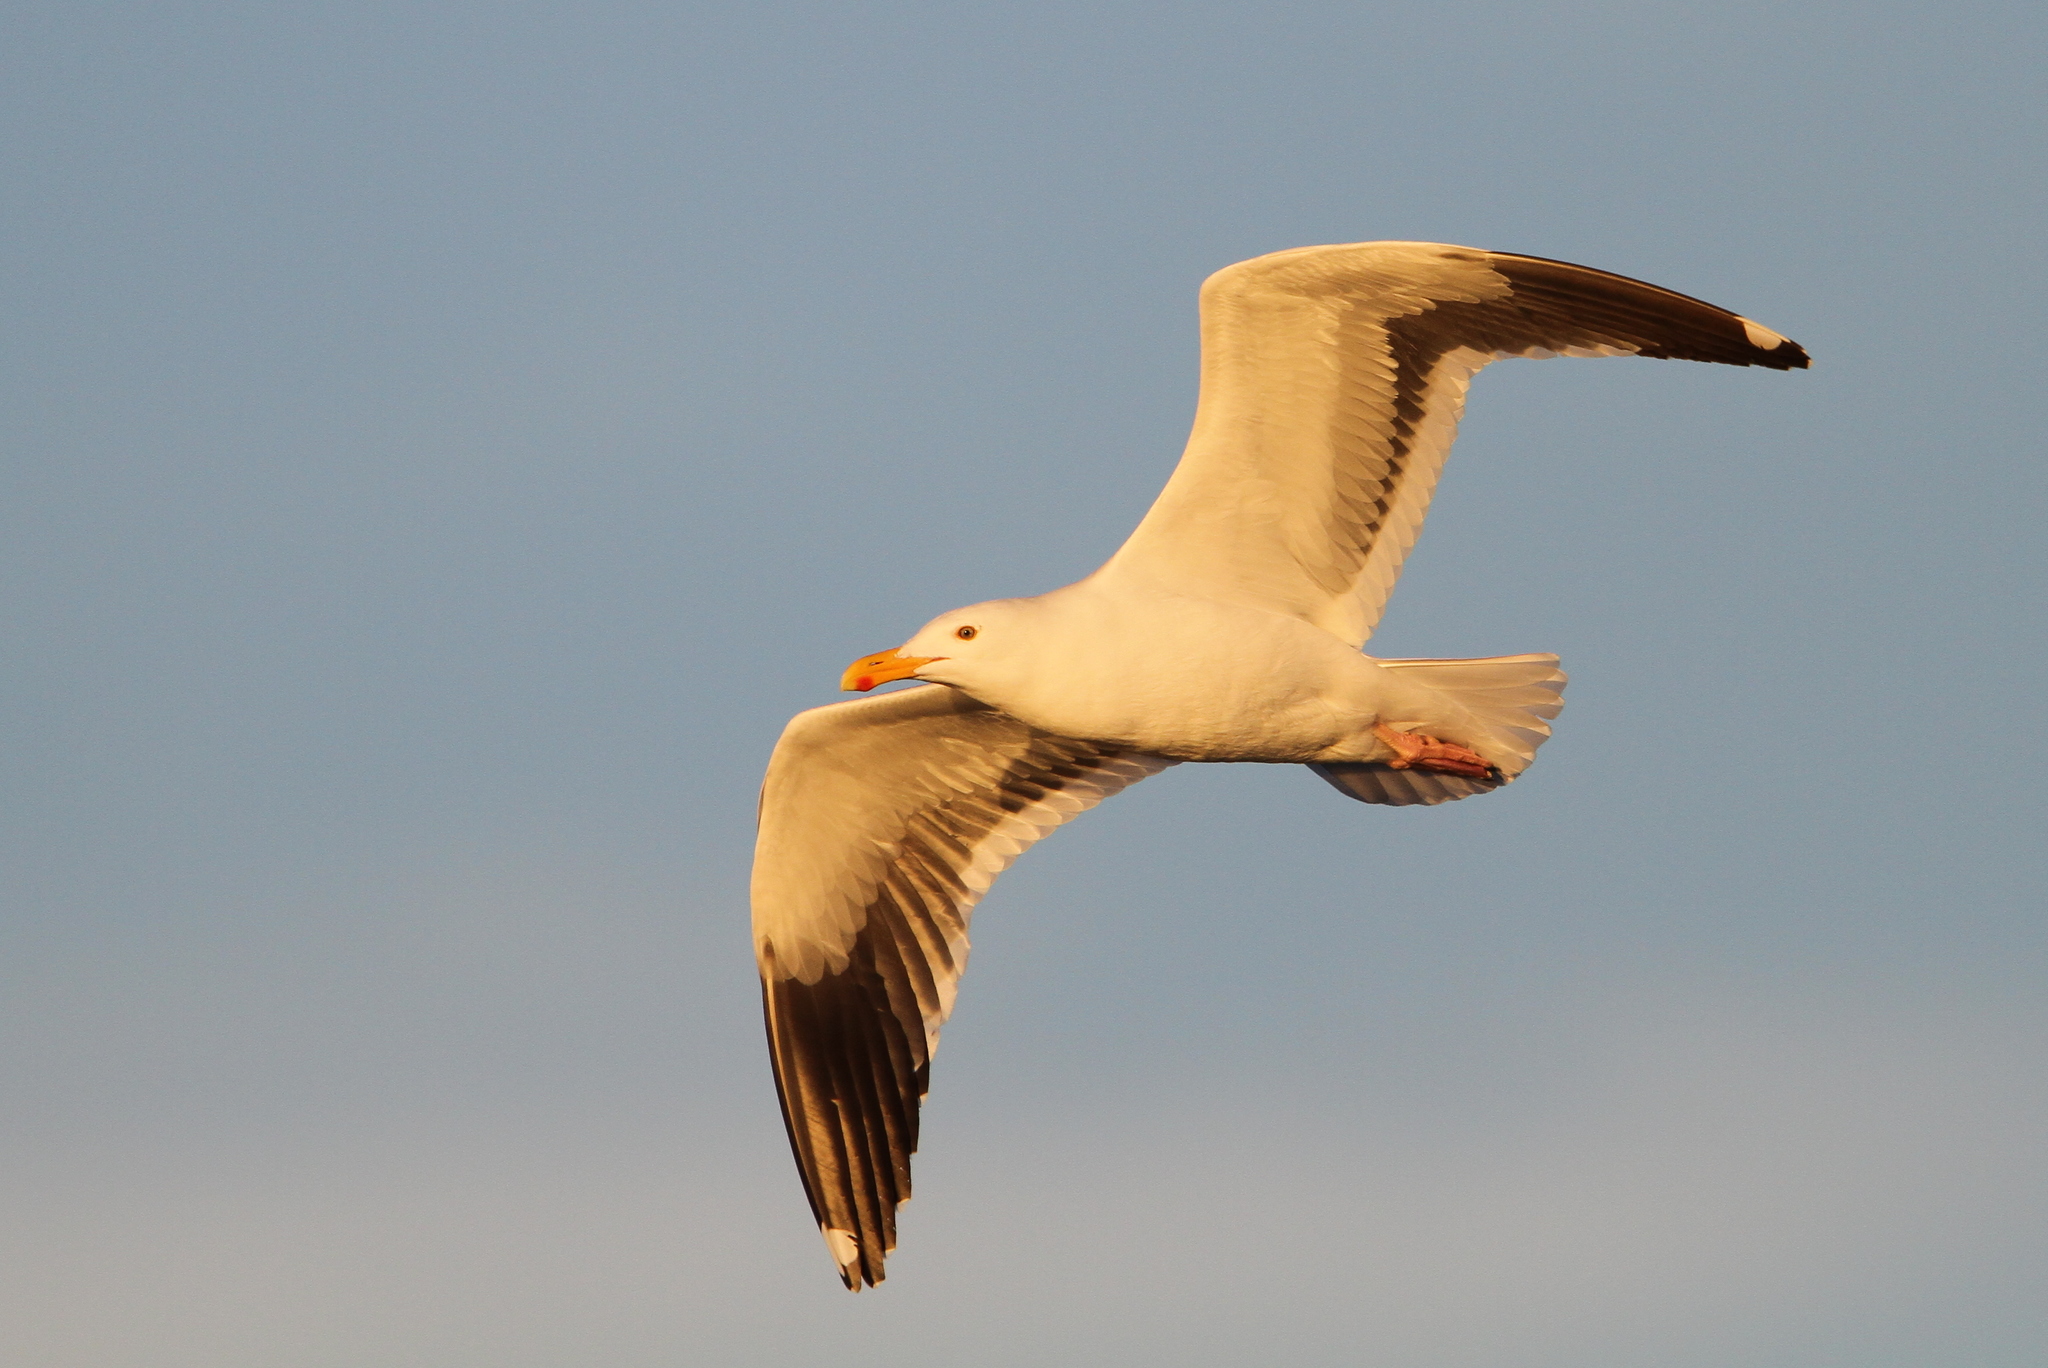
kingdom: Animalia
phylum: Chordata
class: Aves
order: Charadriiformes
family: Laridae
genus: Larus
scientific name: Larus occidentalis
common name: Western gull
